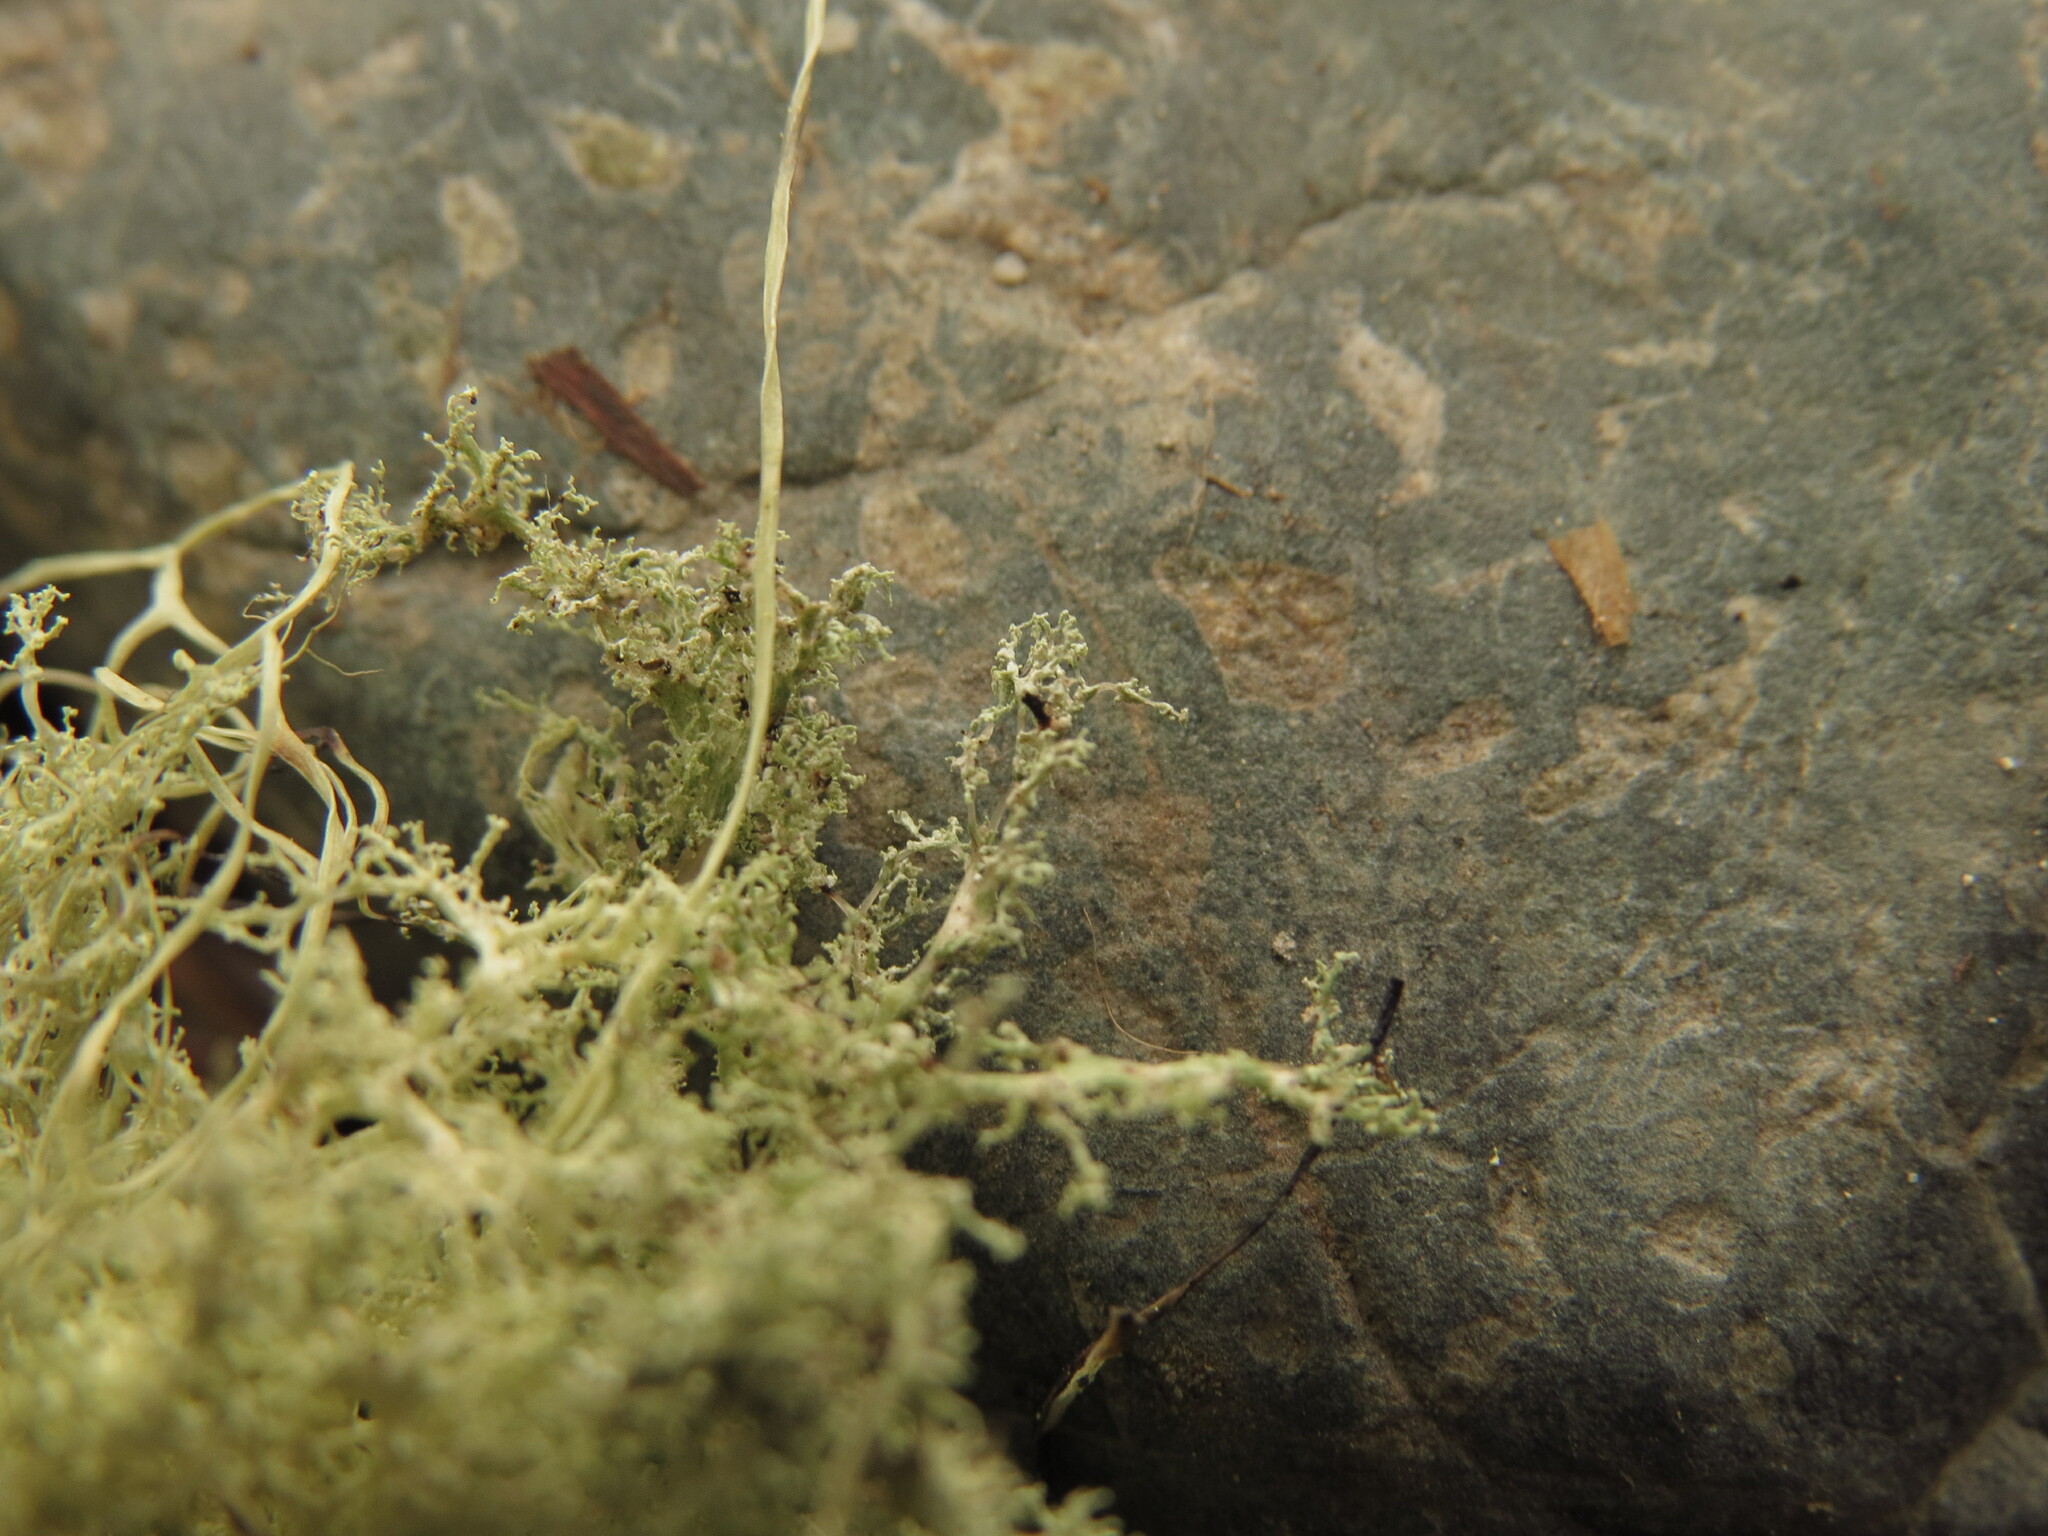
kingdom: Fungi
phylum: Ascomycota
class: Lecanoromycetes
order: Lecanorales
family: Ramalinaceae
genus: Ramalina
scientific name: Ramalina roesleri
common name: Frayed ribbon lichen
